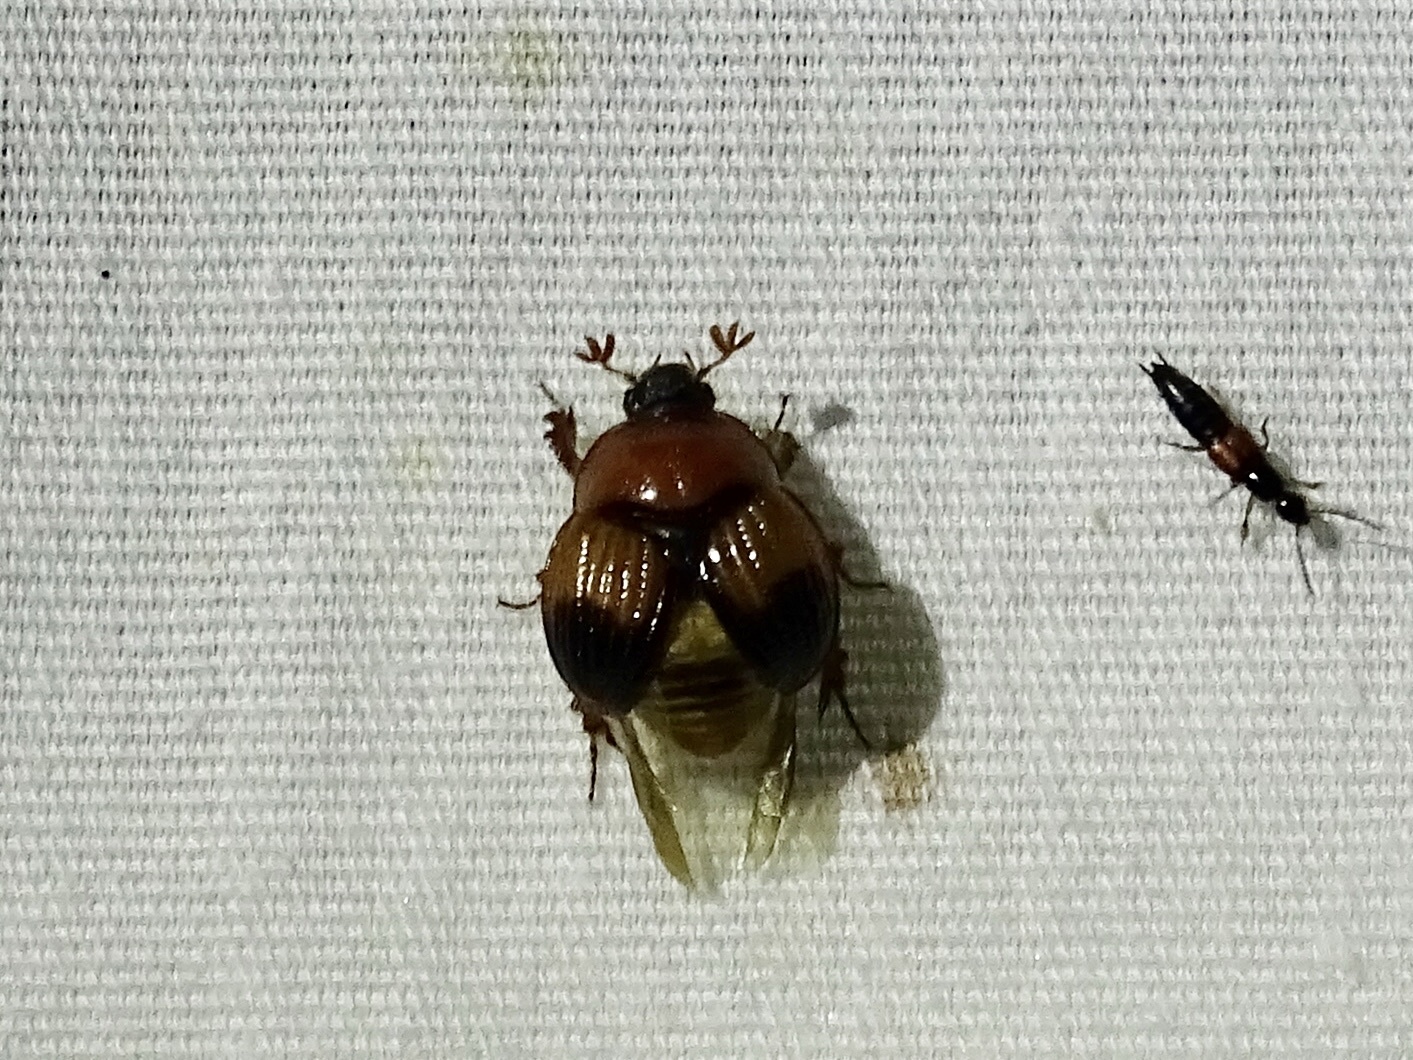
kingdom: Animalia
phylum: Arthropoda
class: Insecta
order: Coleoptera
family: Geotrupidae
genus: Bolbocerosoma
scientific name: Bolbocerosoma pusillum
